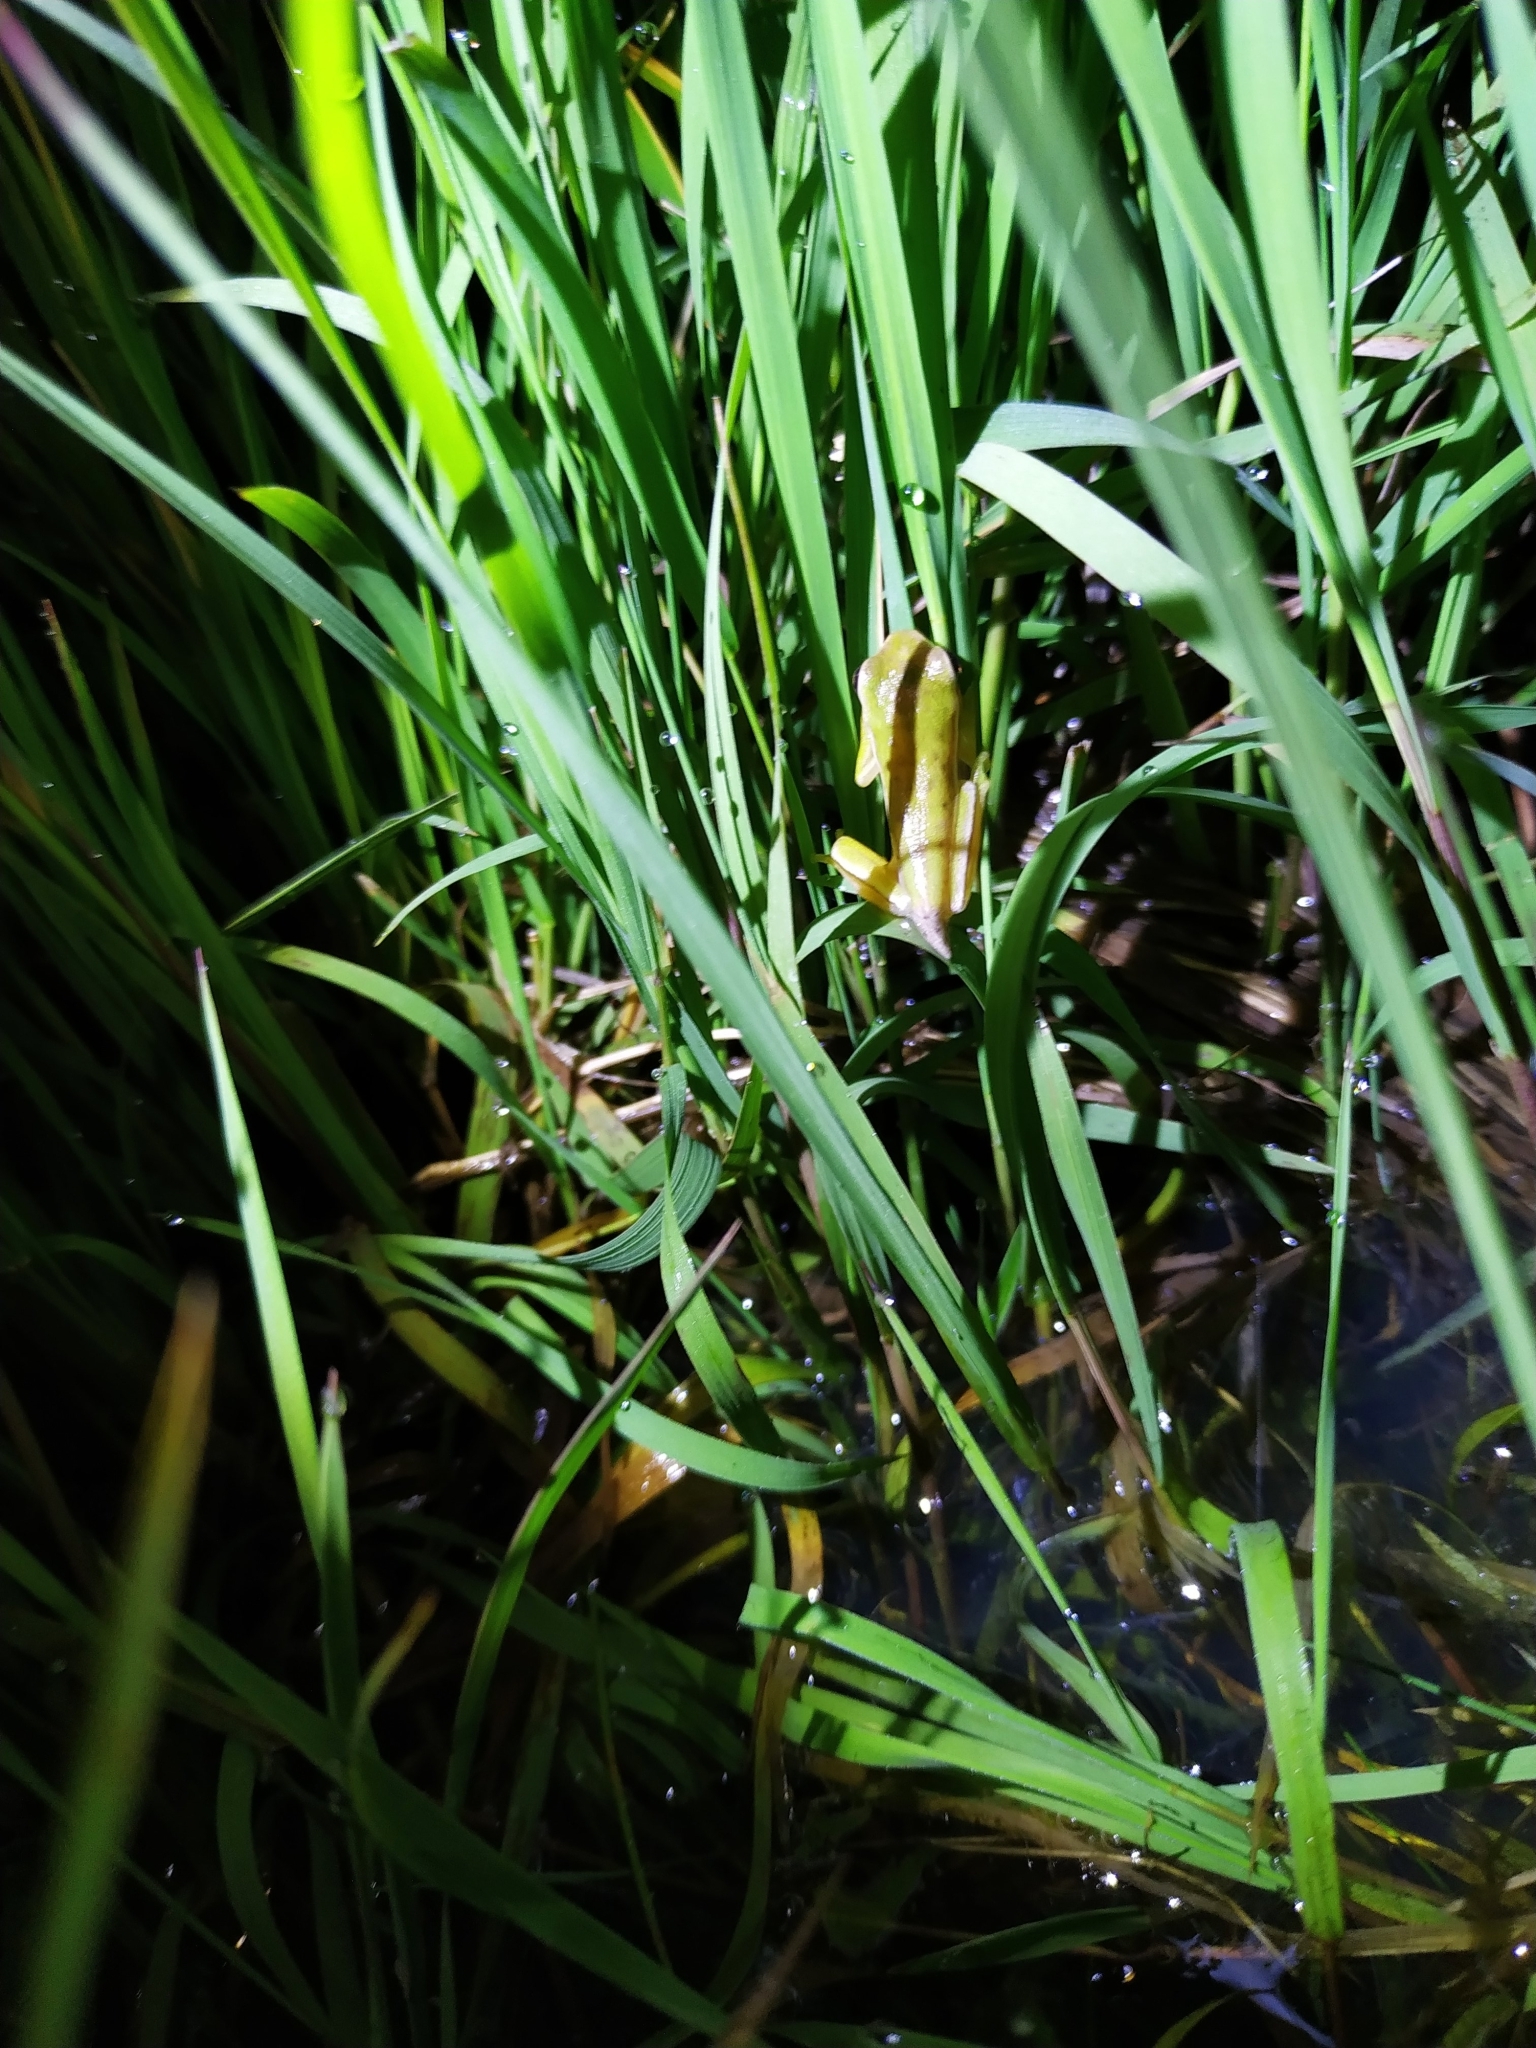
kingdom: Animalia
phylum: Chordata
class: Amphibia
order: Anura
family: Hylidae
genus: Boana
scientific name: Boana pulchella
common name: Montevideo treefrog
